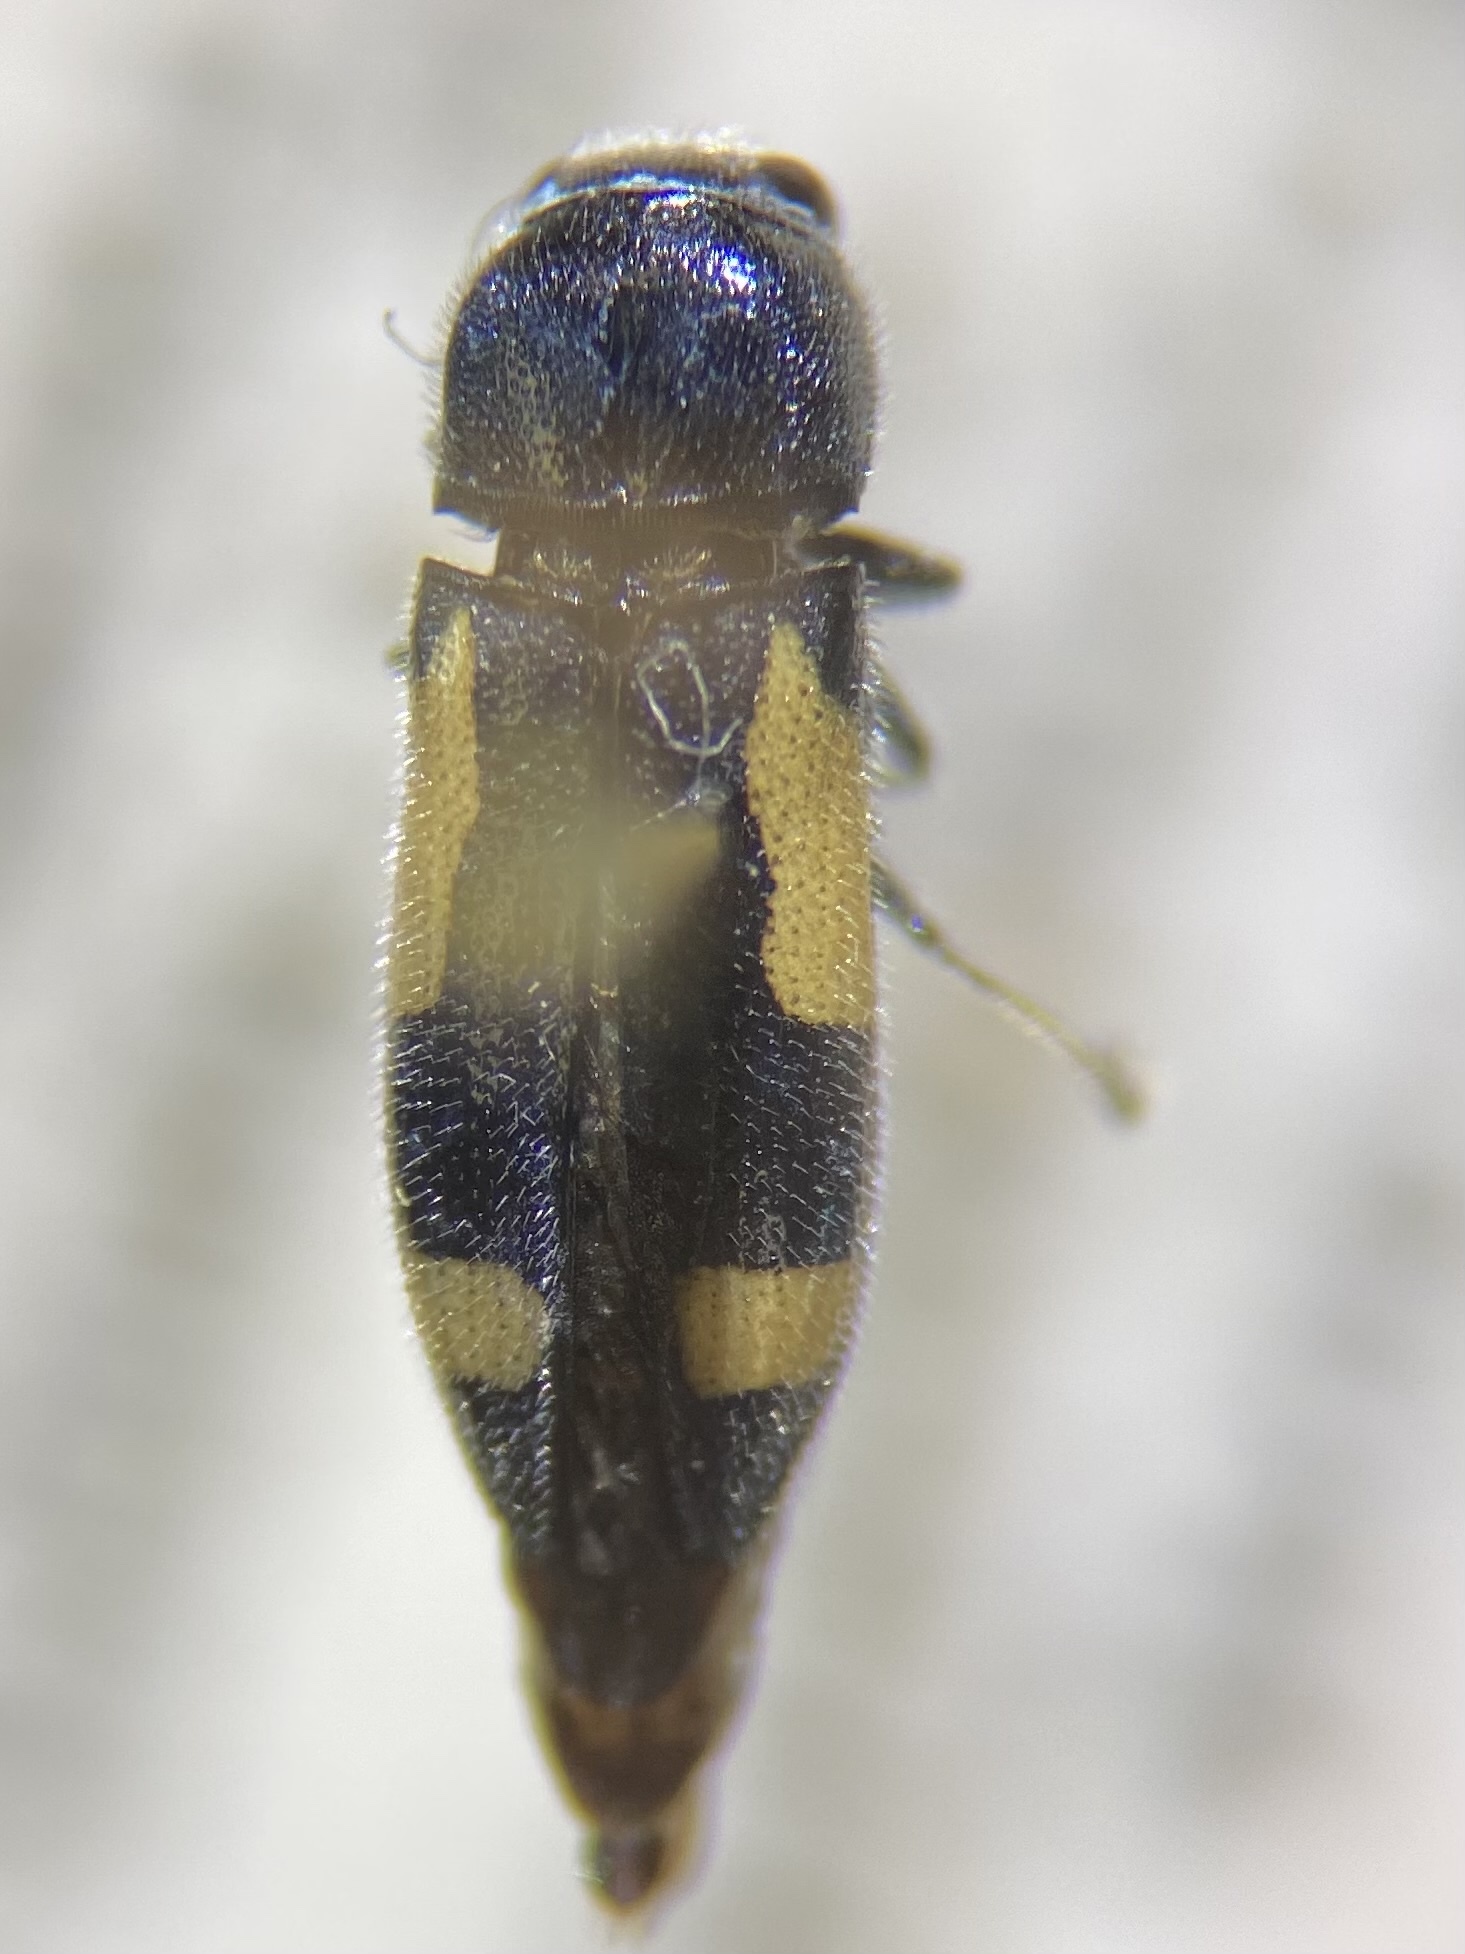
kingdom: Animalia
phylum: Arthropoda
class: Insecta
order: Coleoptera
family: Buprestidae
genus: Ptosima
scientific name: Ptosima gibbicollis
